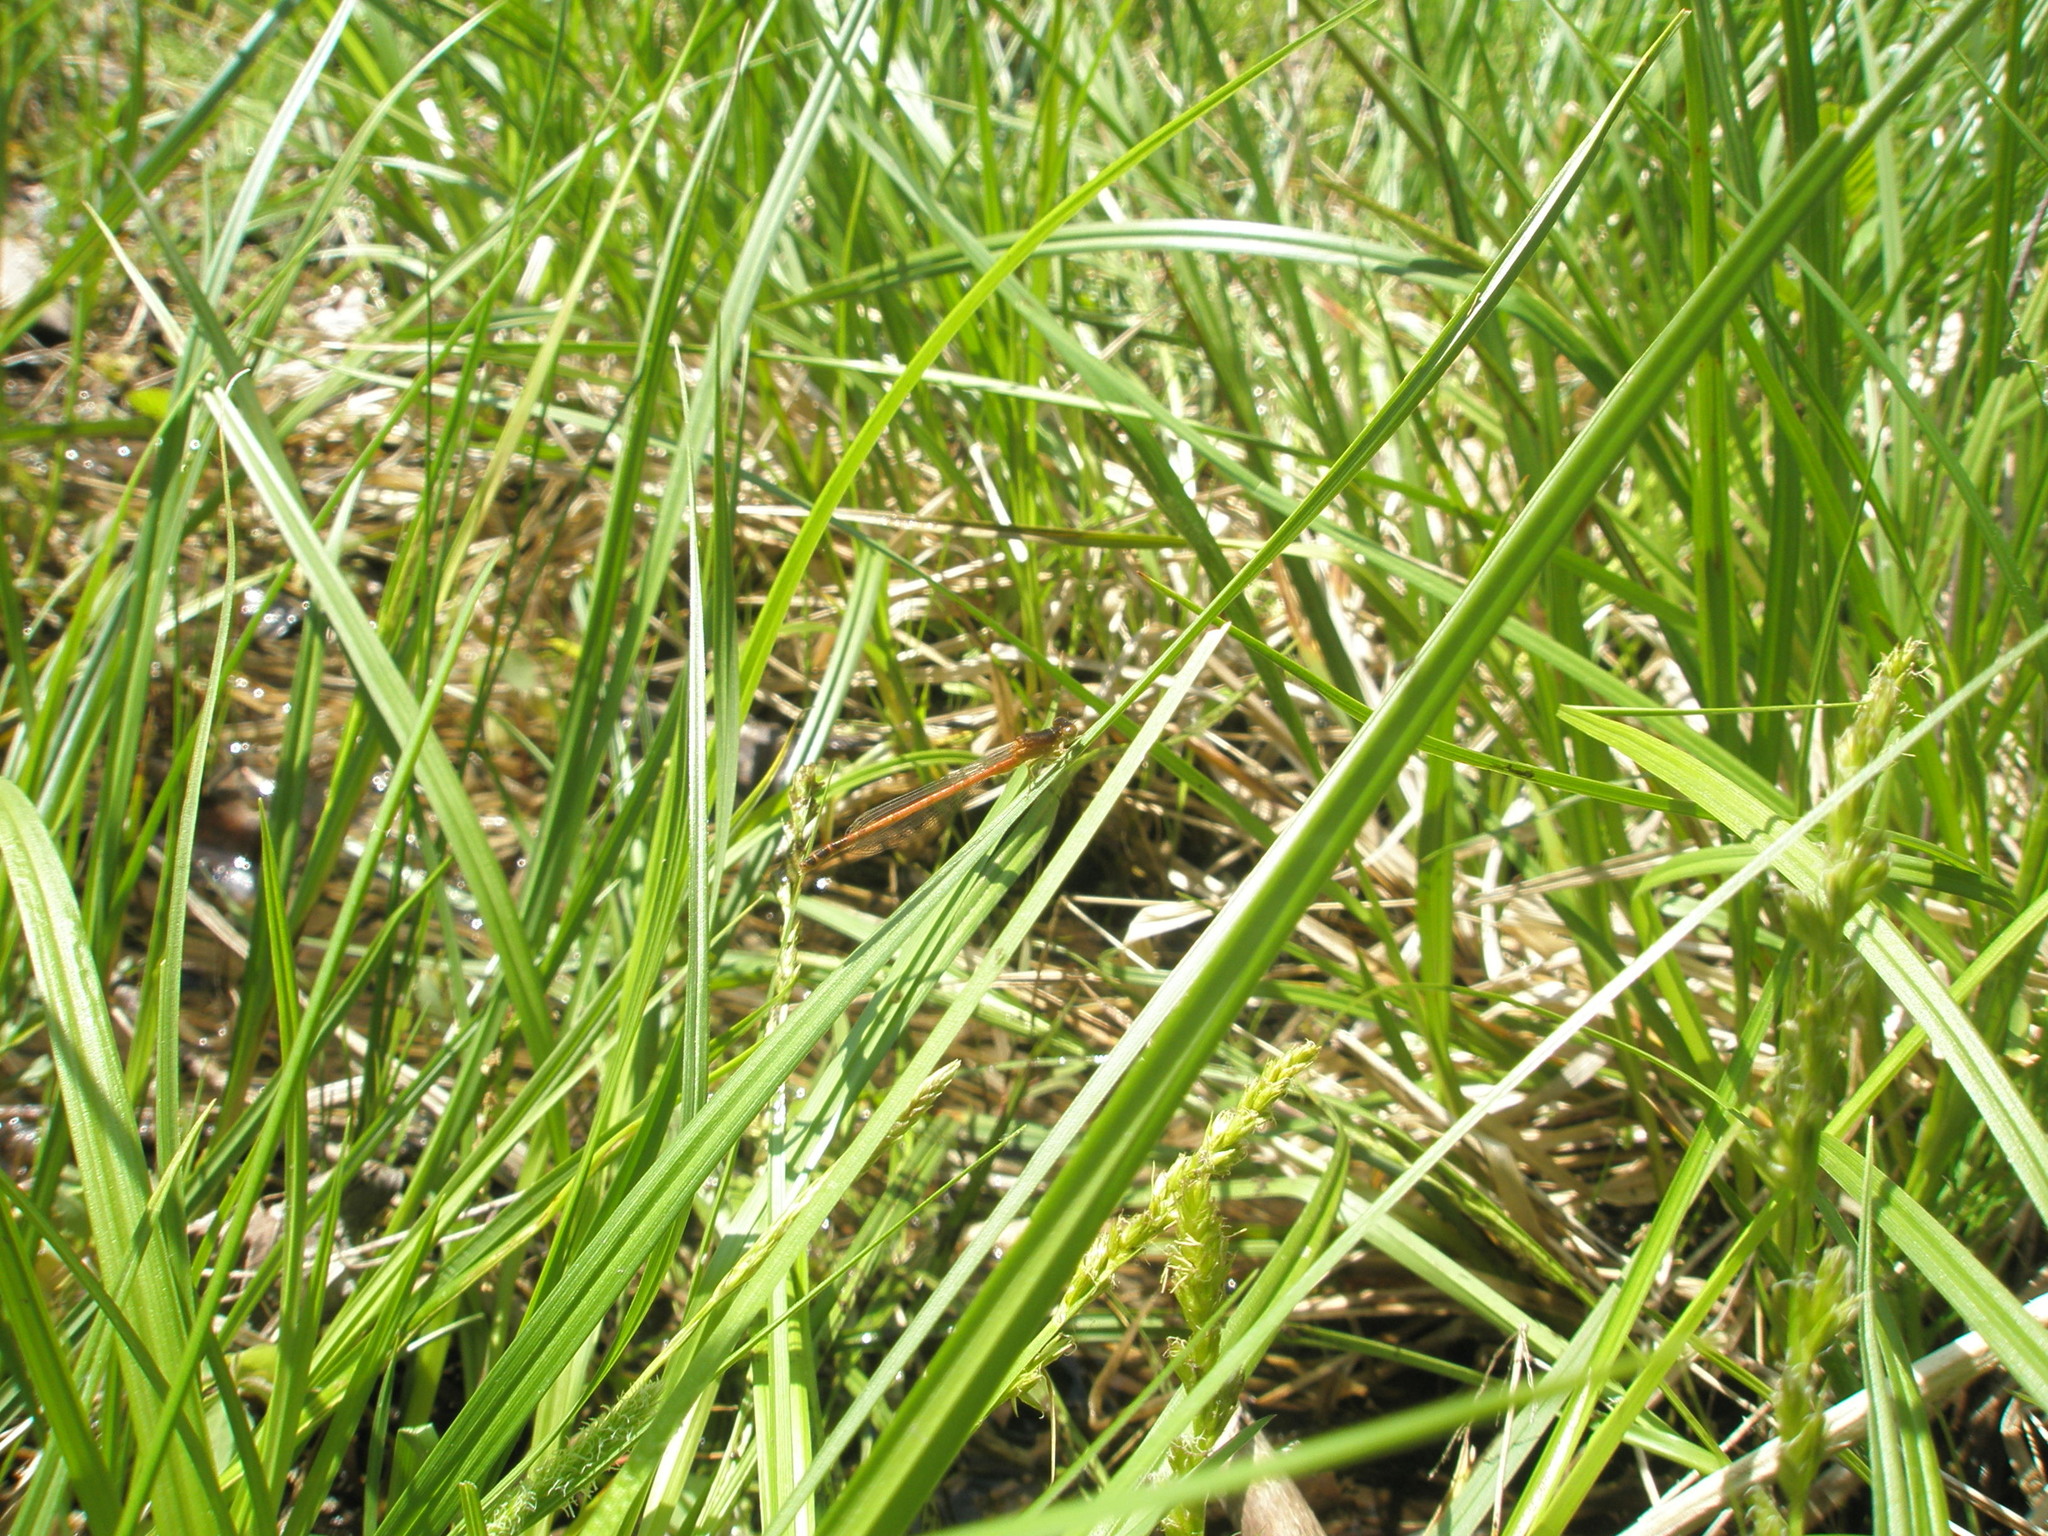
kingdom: Animalia
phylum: Arthropoda
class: Insecta
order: Odonata
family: Coenagrionidae
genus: Amphiagrion
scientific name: Amphiagrion saucium
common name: Eastern red damsel
